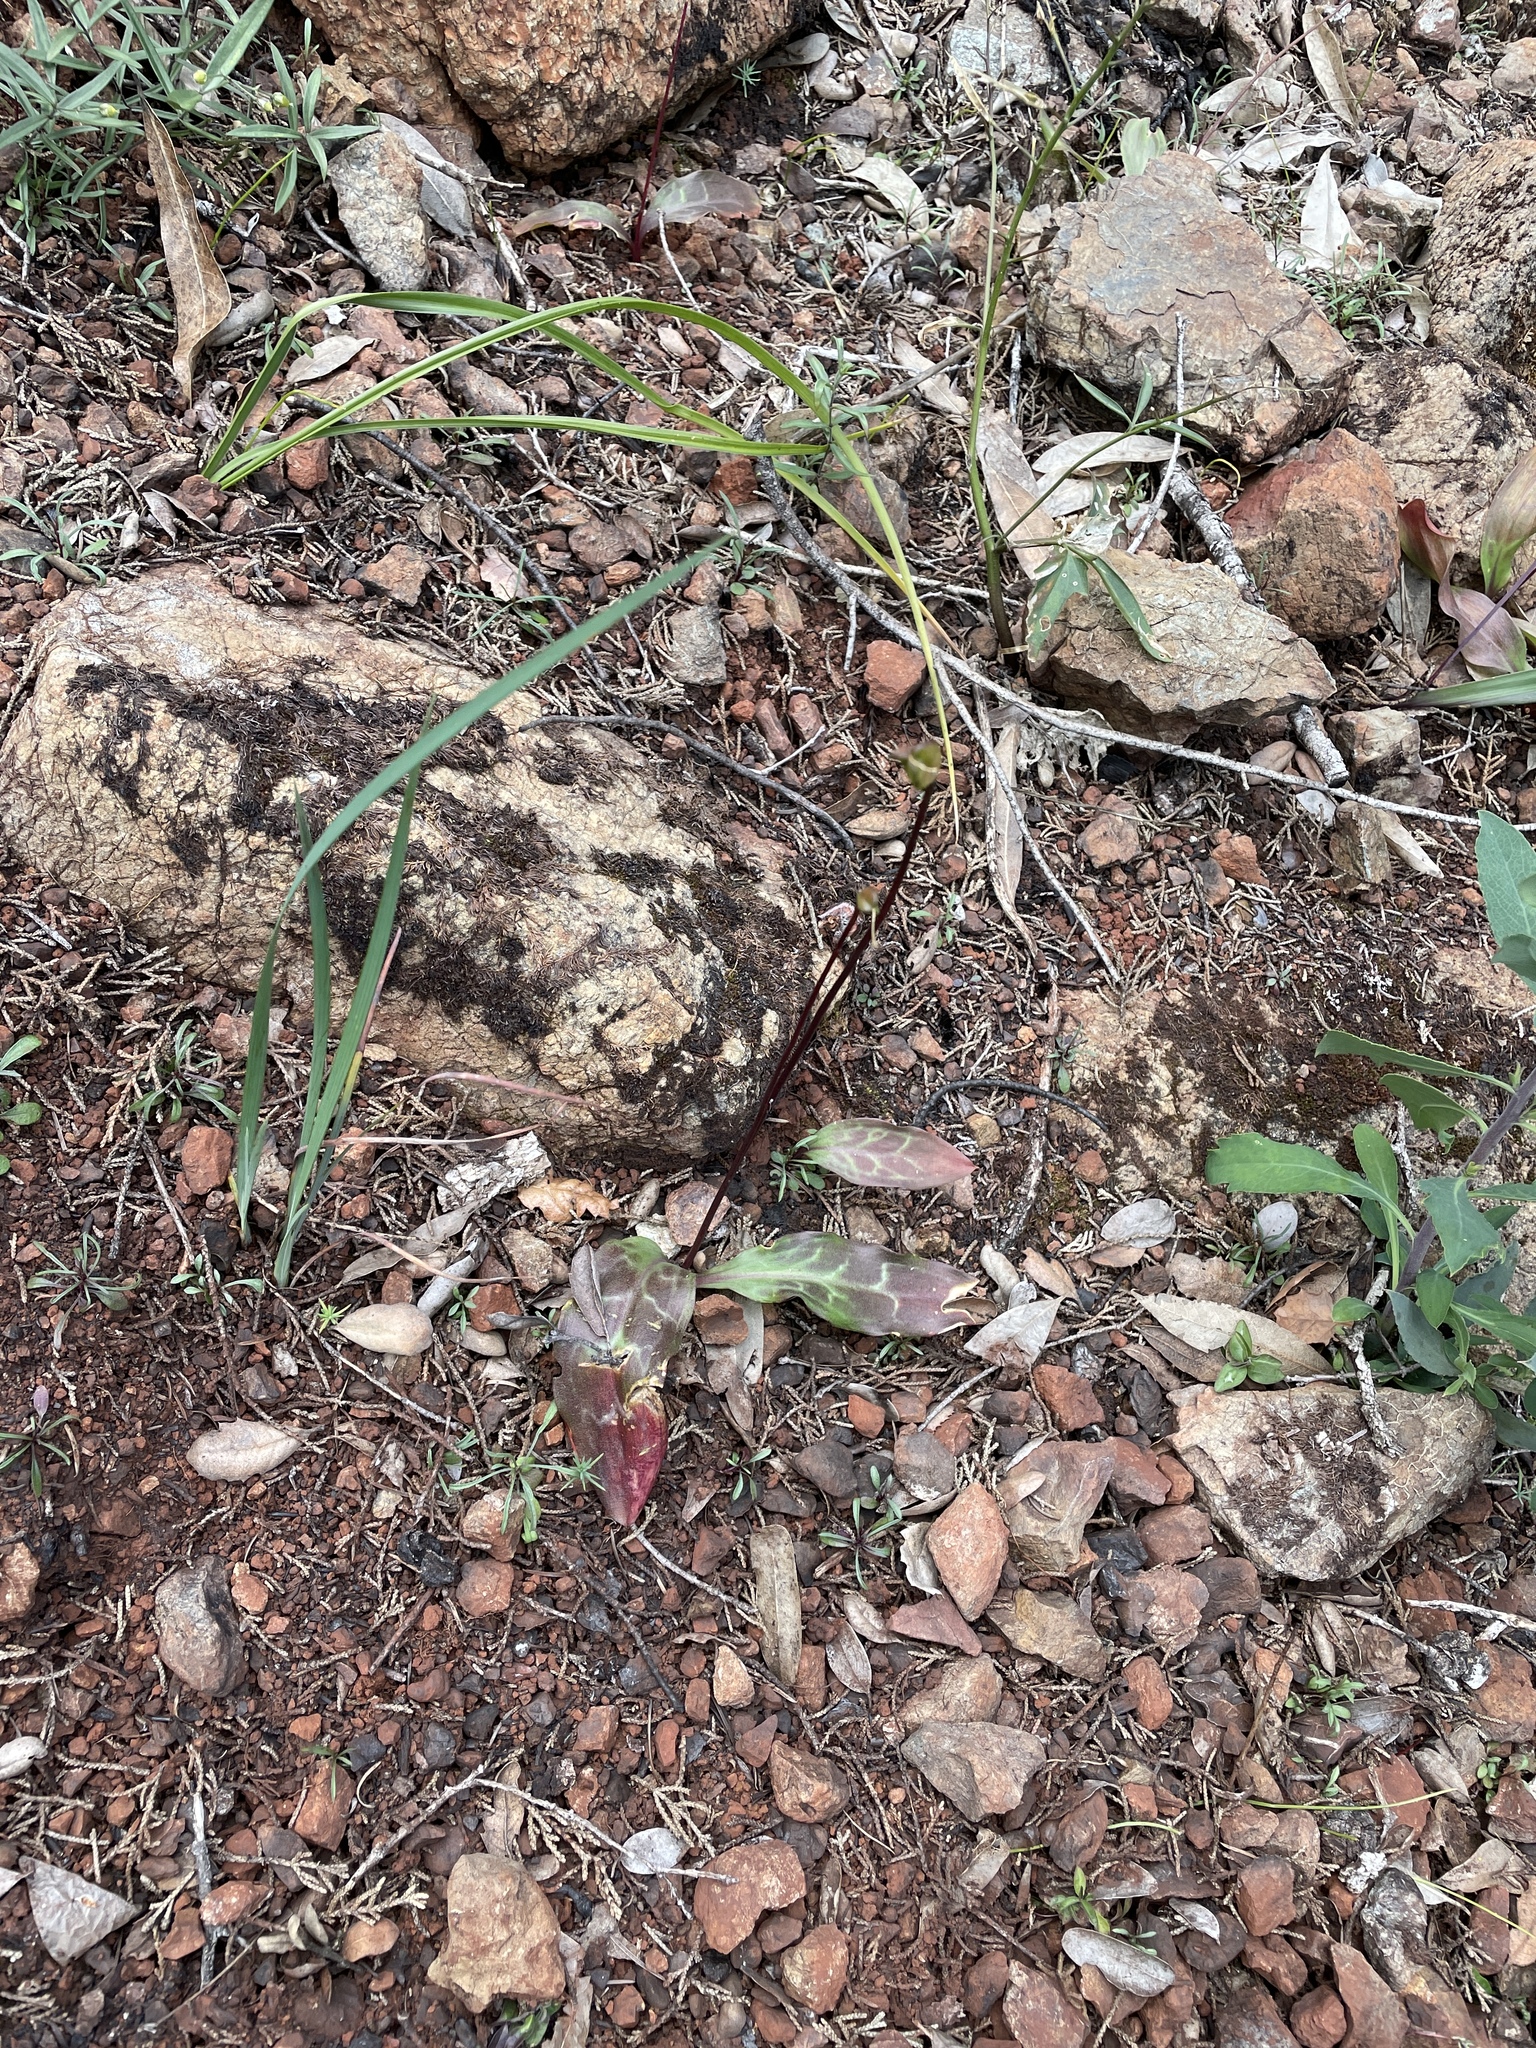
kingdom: Plantae
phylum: Tracheophyta
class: Liliopsida
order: Liliales
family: Liliaceae
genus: Erythronium
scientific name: Erythronium californicum
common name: Fawn-lily
